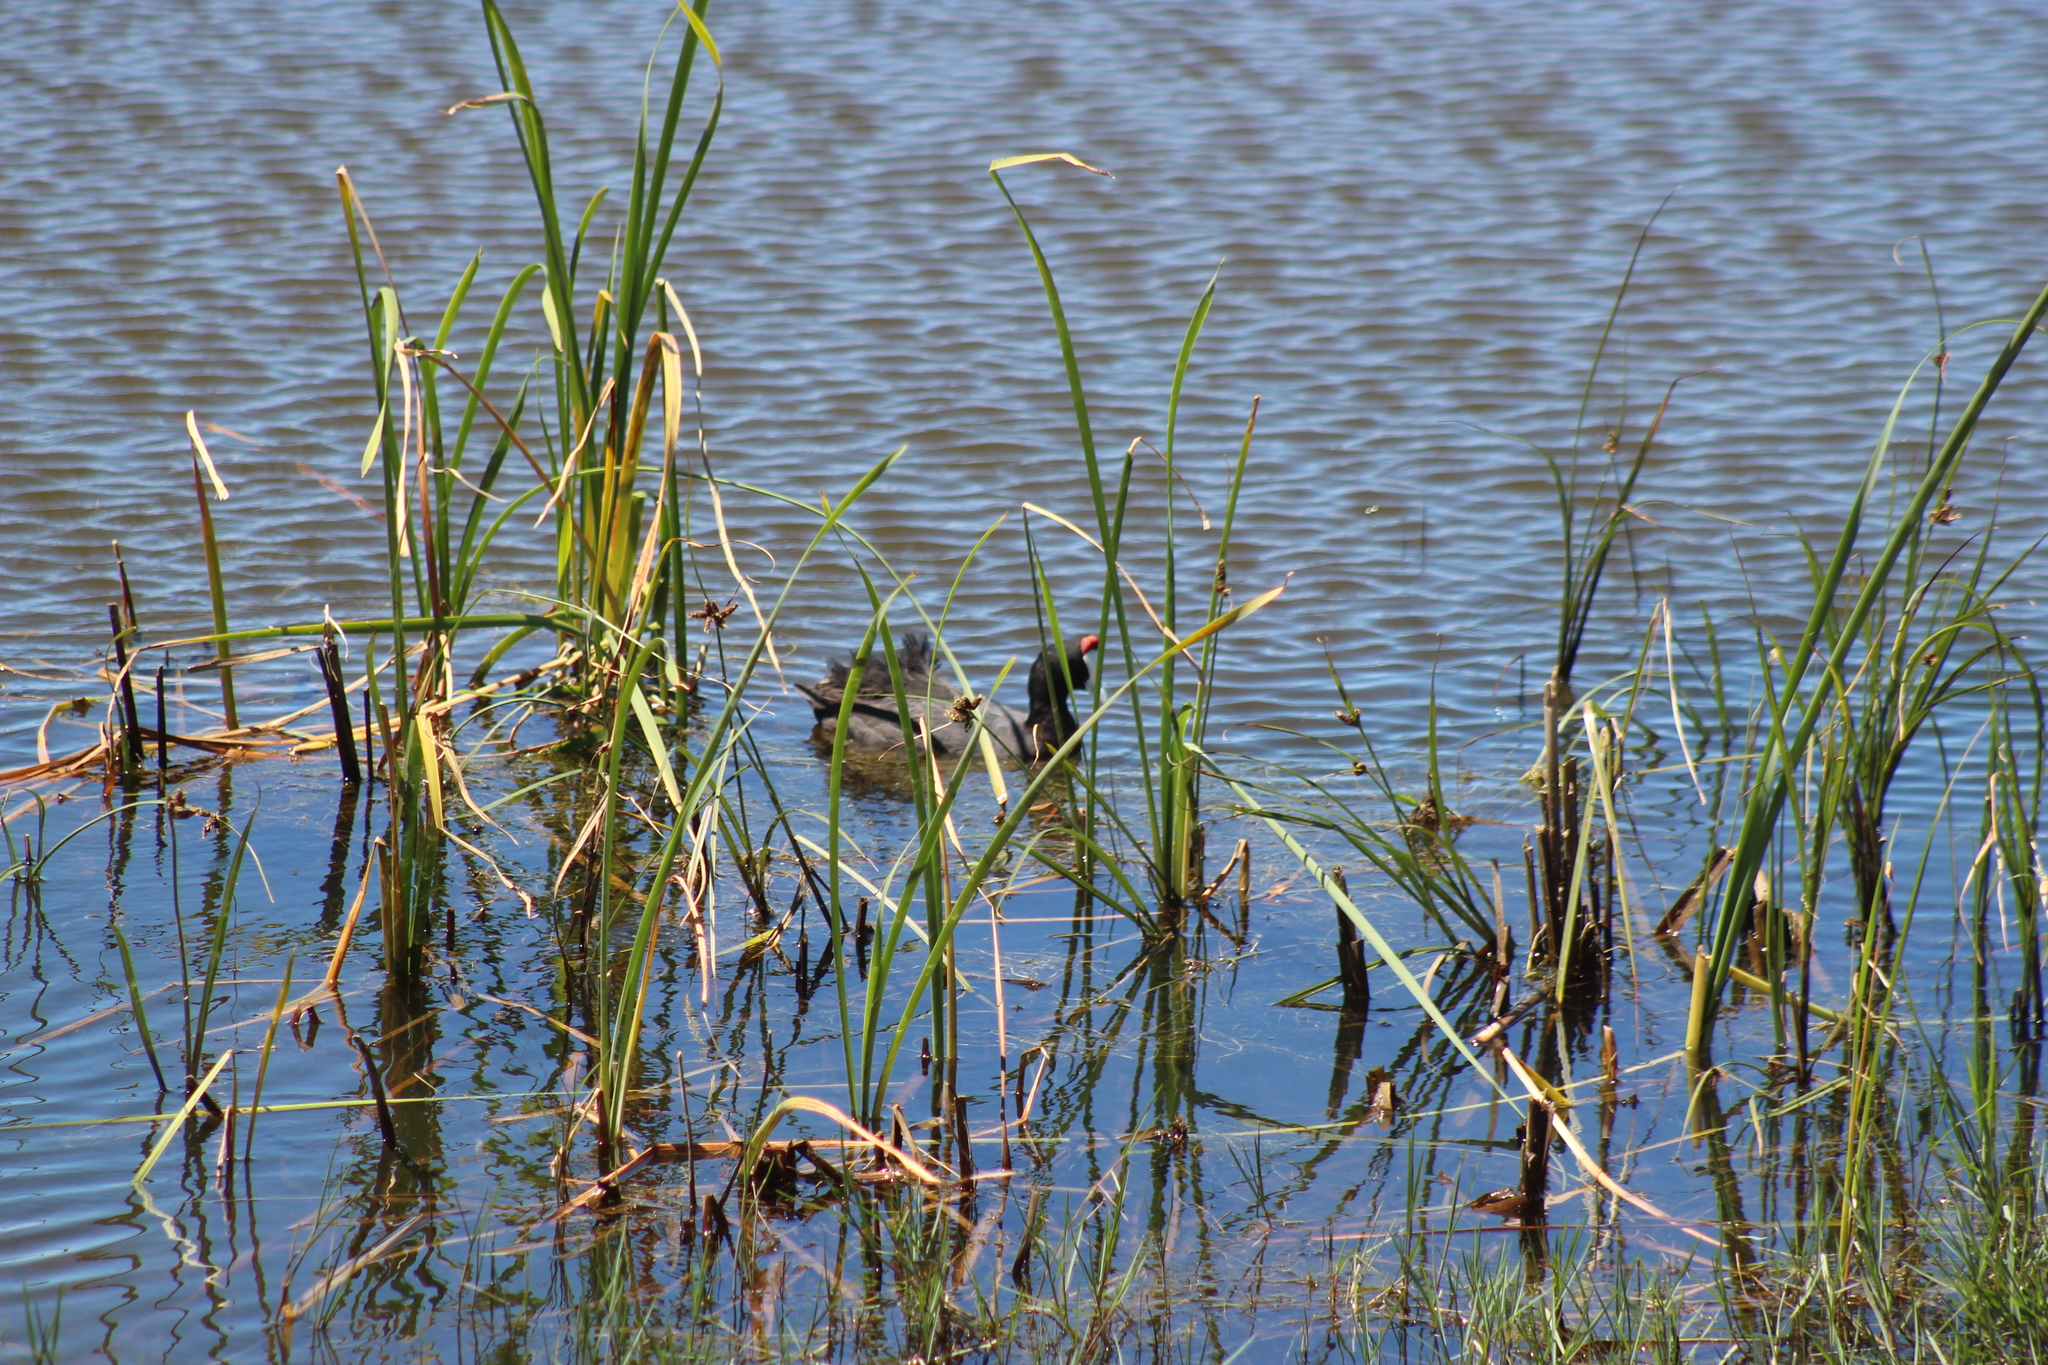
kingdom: Animalia
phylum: Chordata
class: Aves
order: Gruiformes
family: Rallidae
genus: Fulica
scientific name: Fulica cristata
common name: Red-knobbed coot
